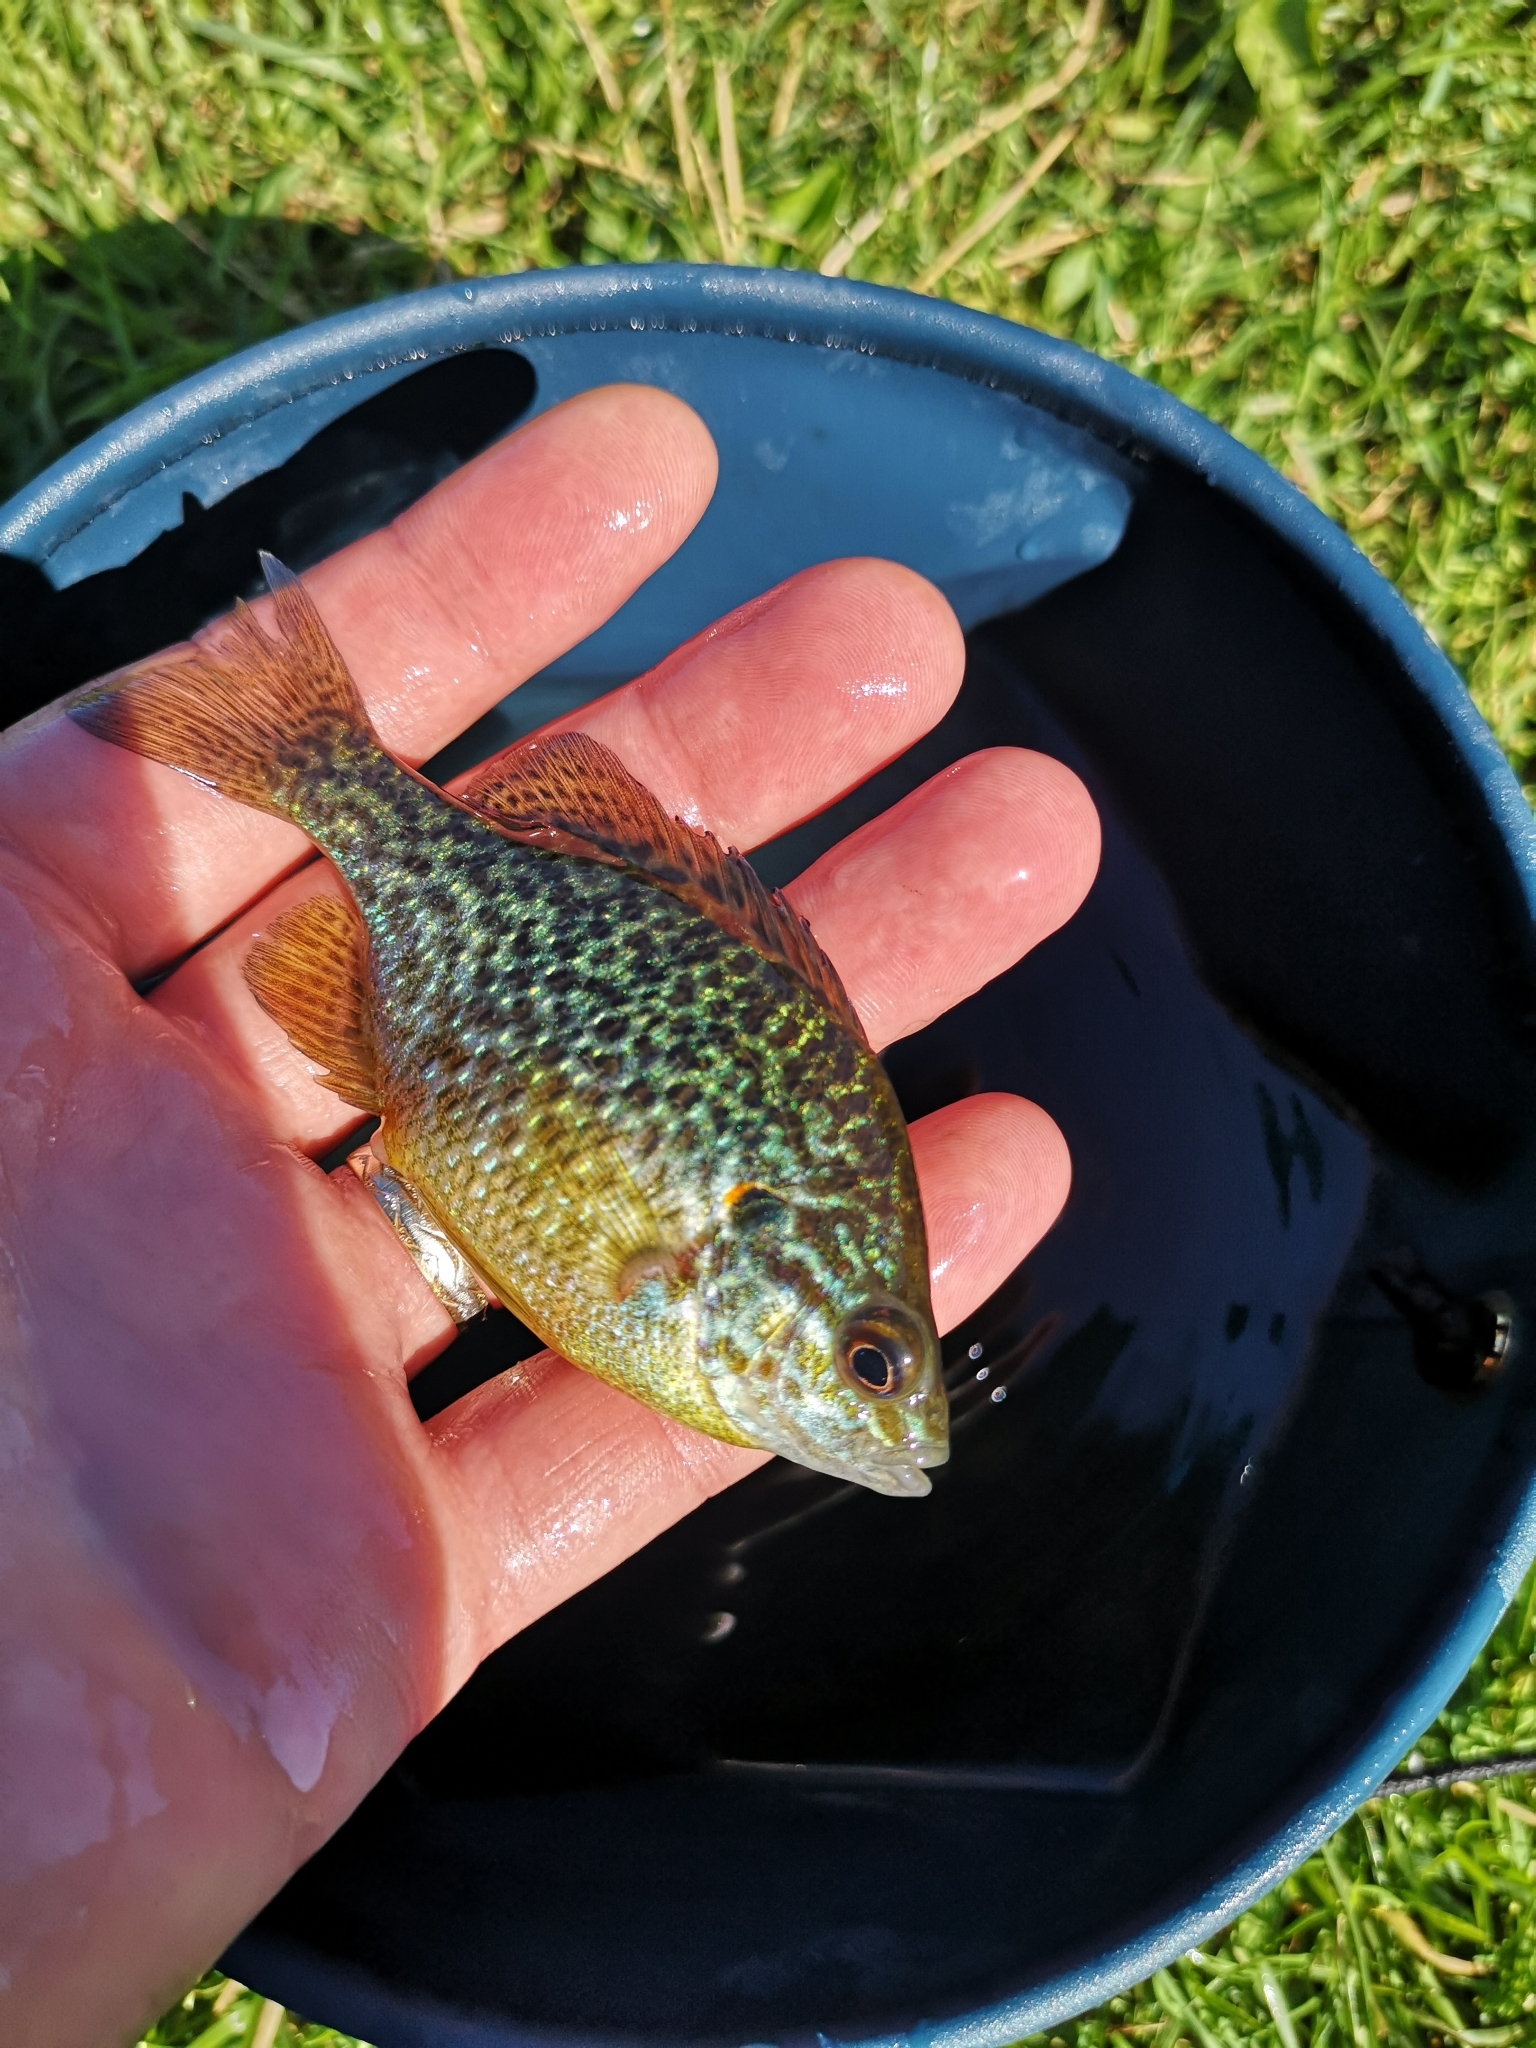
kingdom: Animalia
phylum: Chordata
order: Perciformes
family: Centrarchidae
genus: Lepomis
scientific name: Lepomis gibbosus
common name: Pumpkinseed
